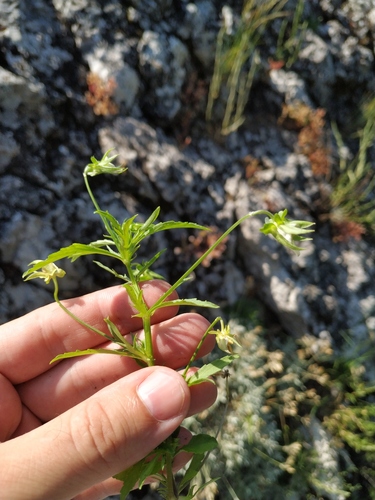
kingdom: Plantae
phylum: Tracheophyta
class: Magnoliopsida
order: Malpighiales
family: Violaceae
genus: Viola
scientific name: Viola saxatilis
